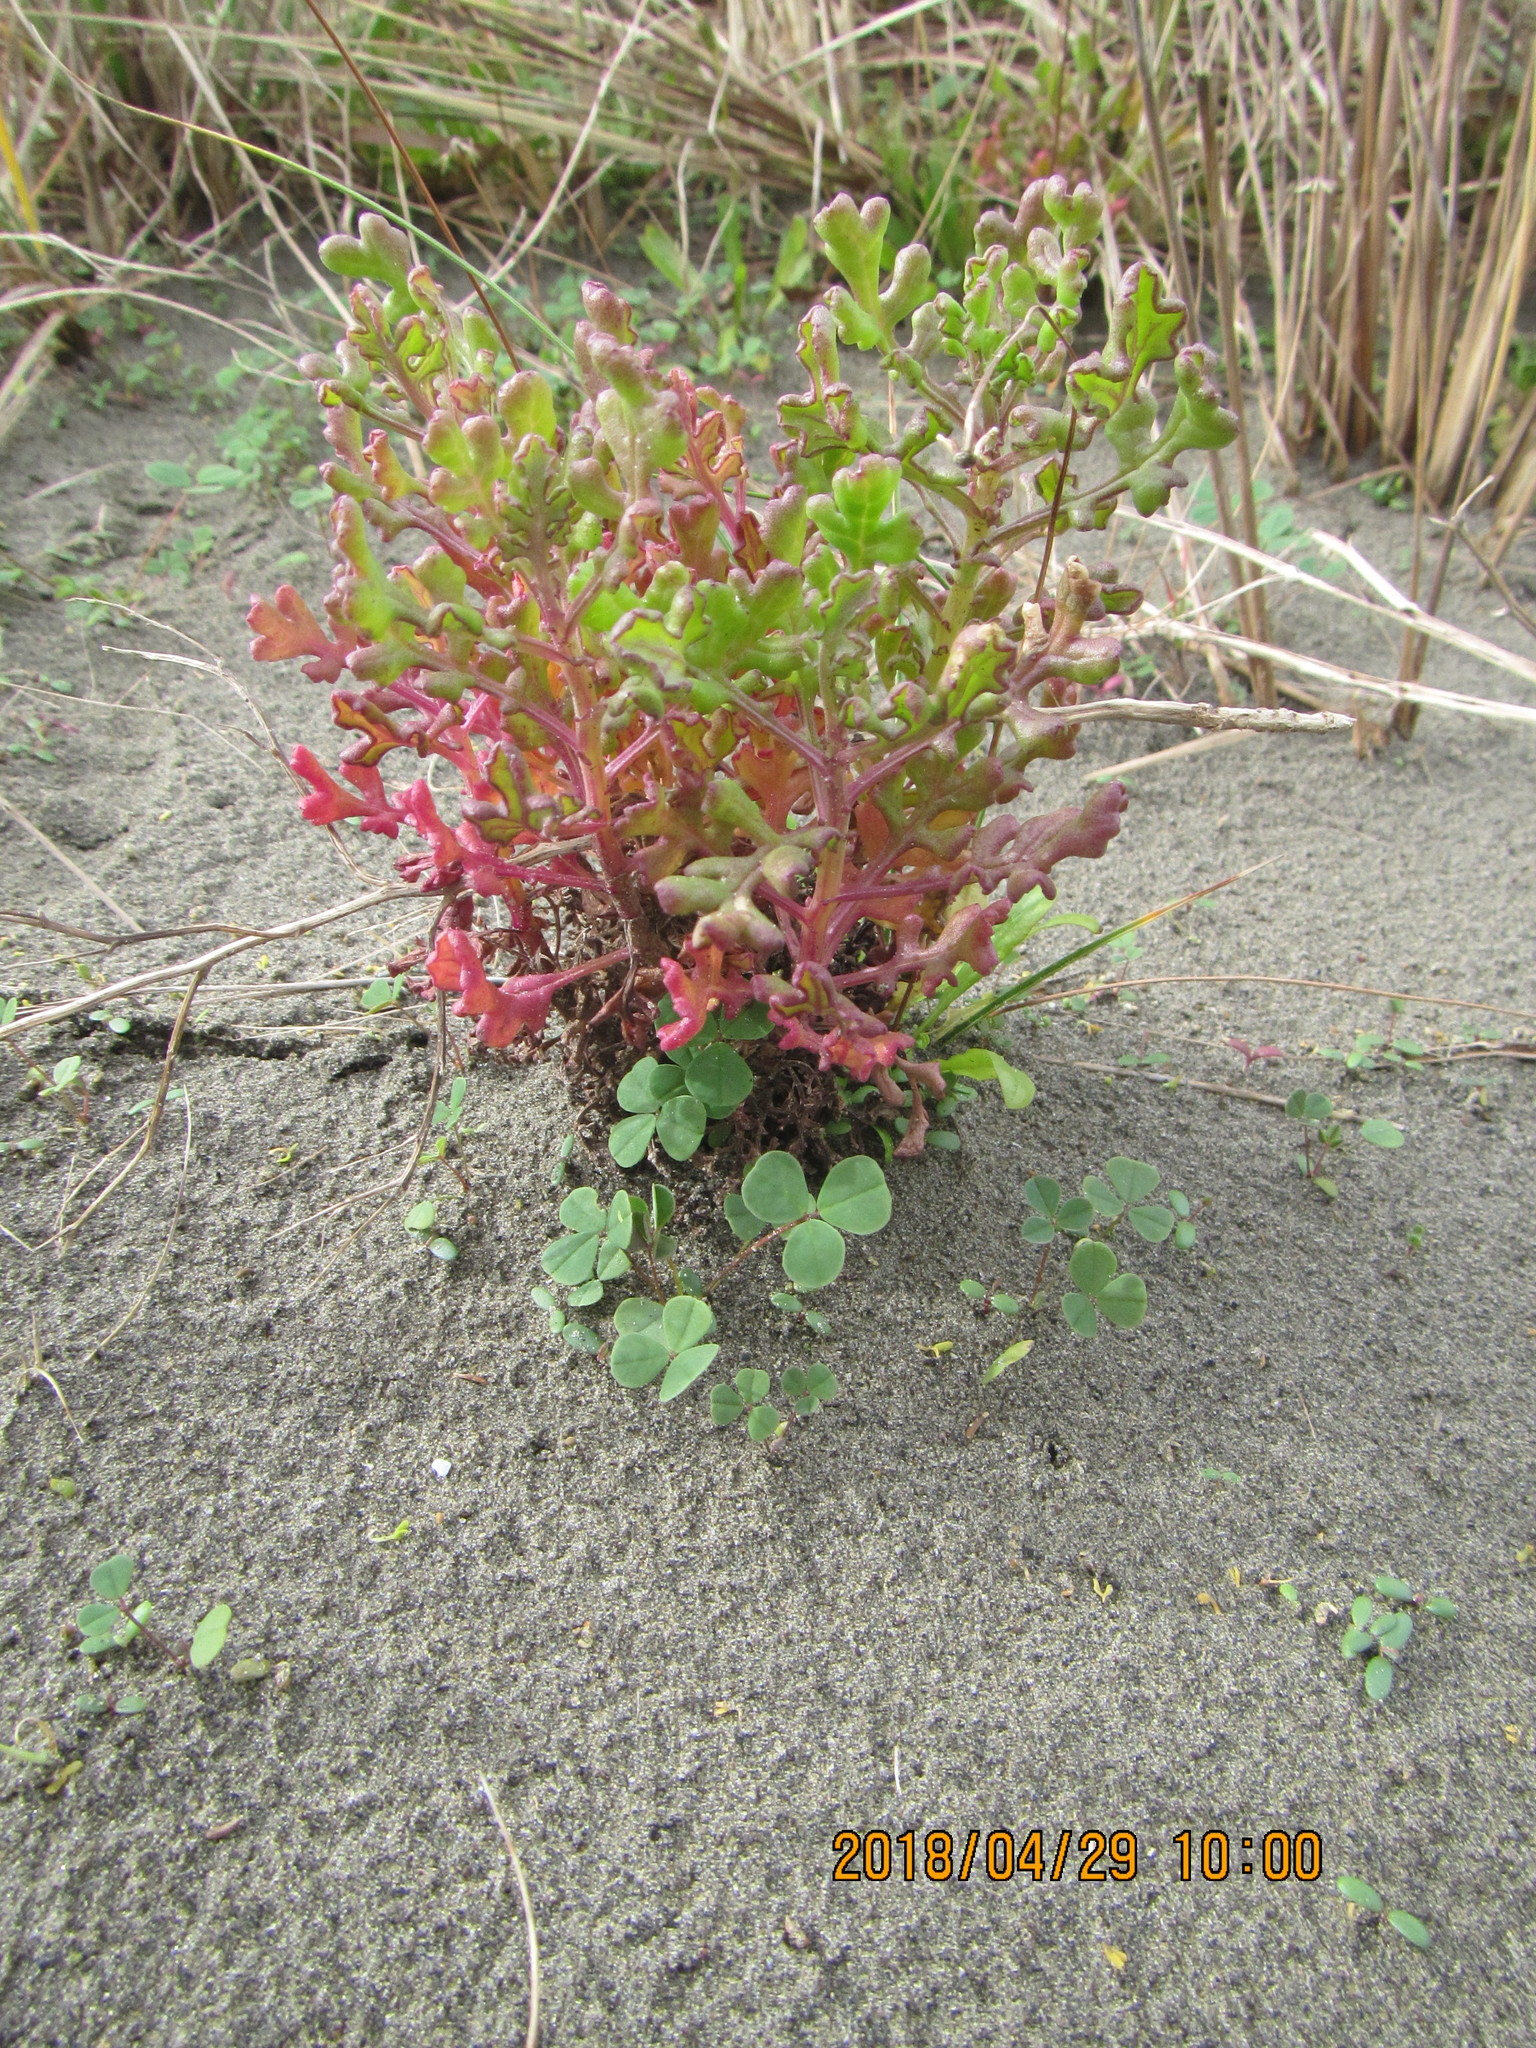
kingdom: Plantae
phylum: Tracheophyta
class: Magnoliopsida
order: Asterales
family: Asteraceae
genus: Senecio
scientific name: Senecio elegans
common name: Purple groundsel
